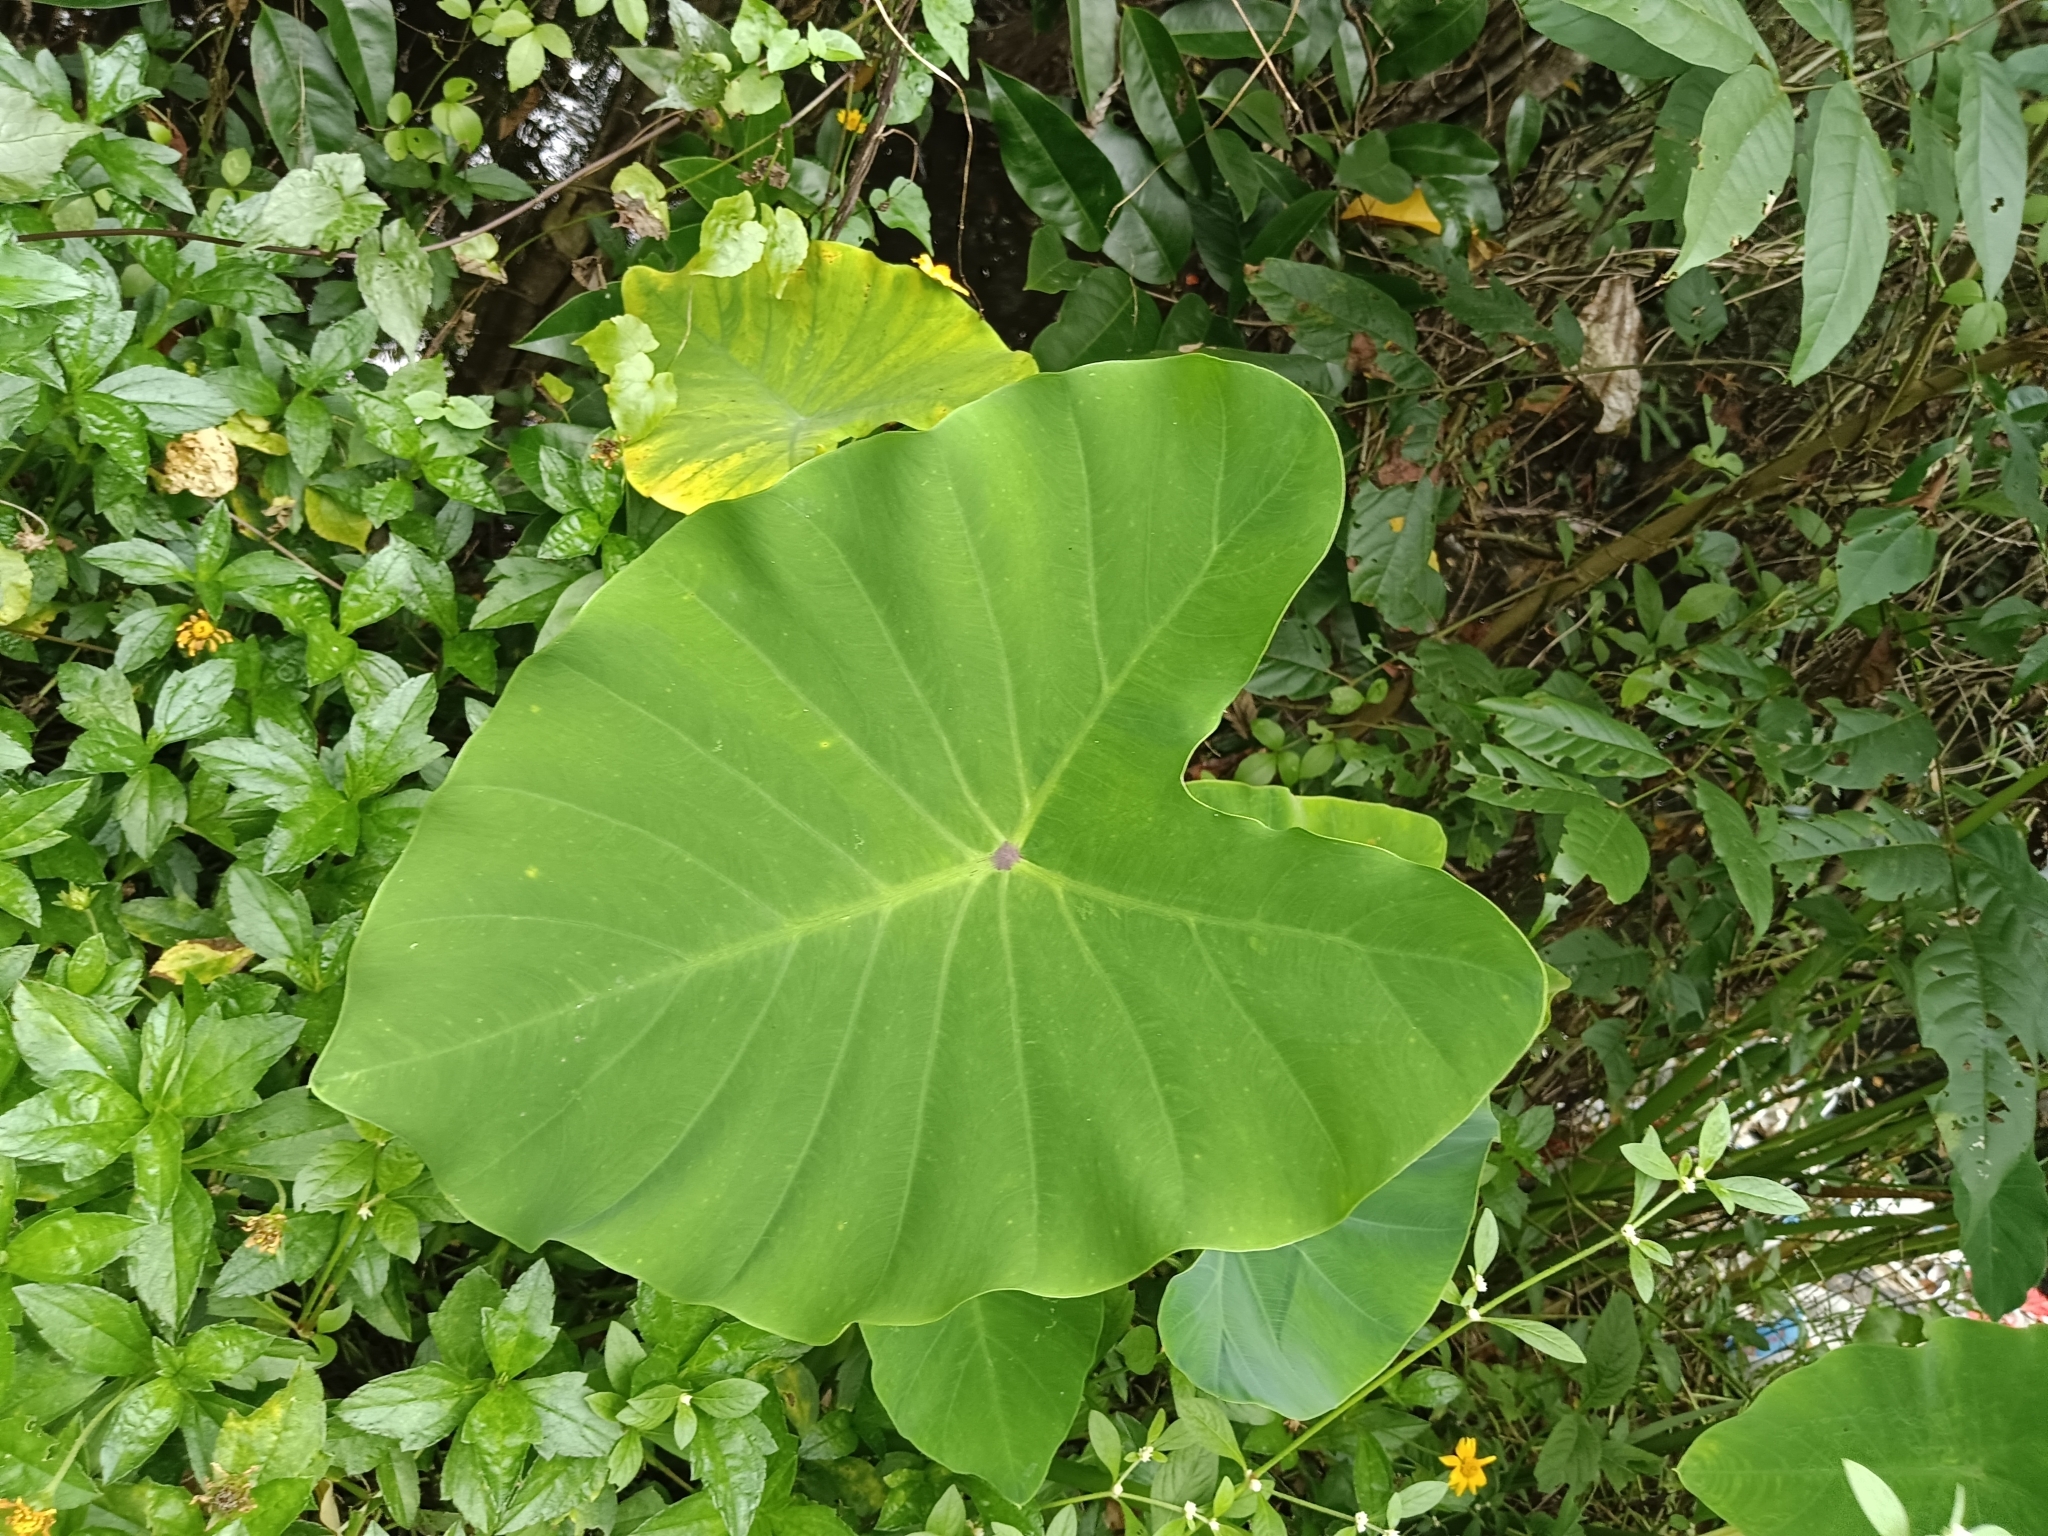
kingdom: Plantae
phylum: Tracheophyta
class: Liliopsida
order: Alismatales
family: Araceae
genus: Colocasia
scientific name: Colocasia esculenta
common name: Taro
